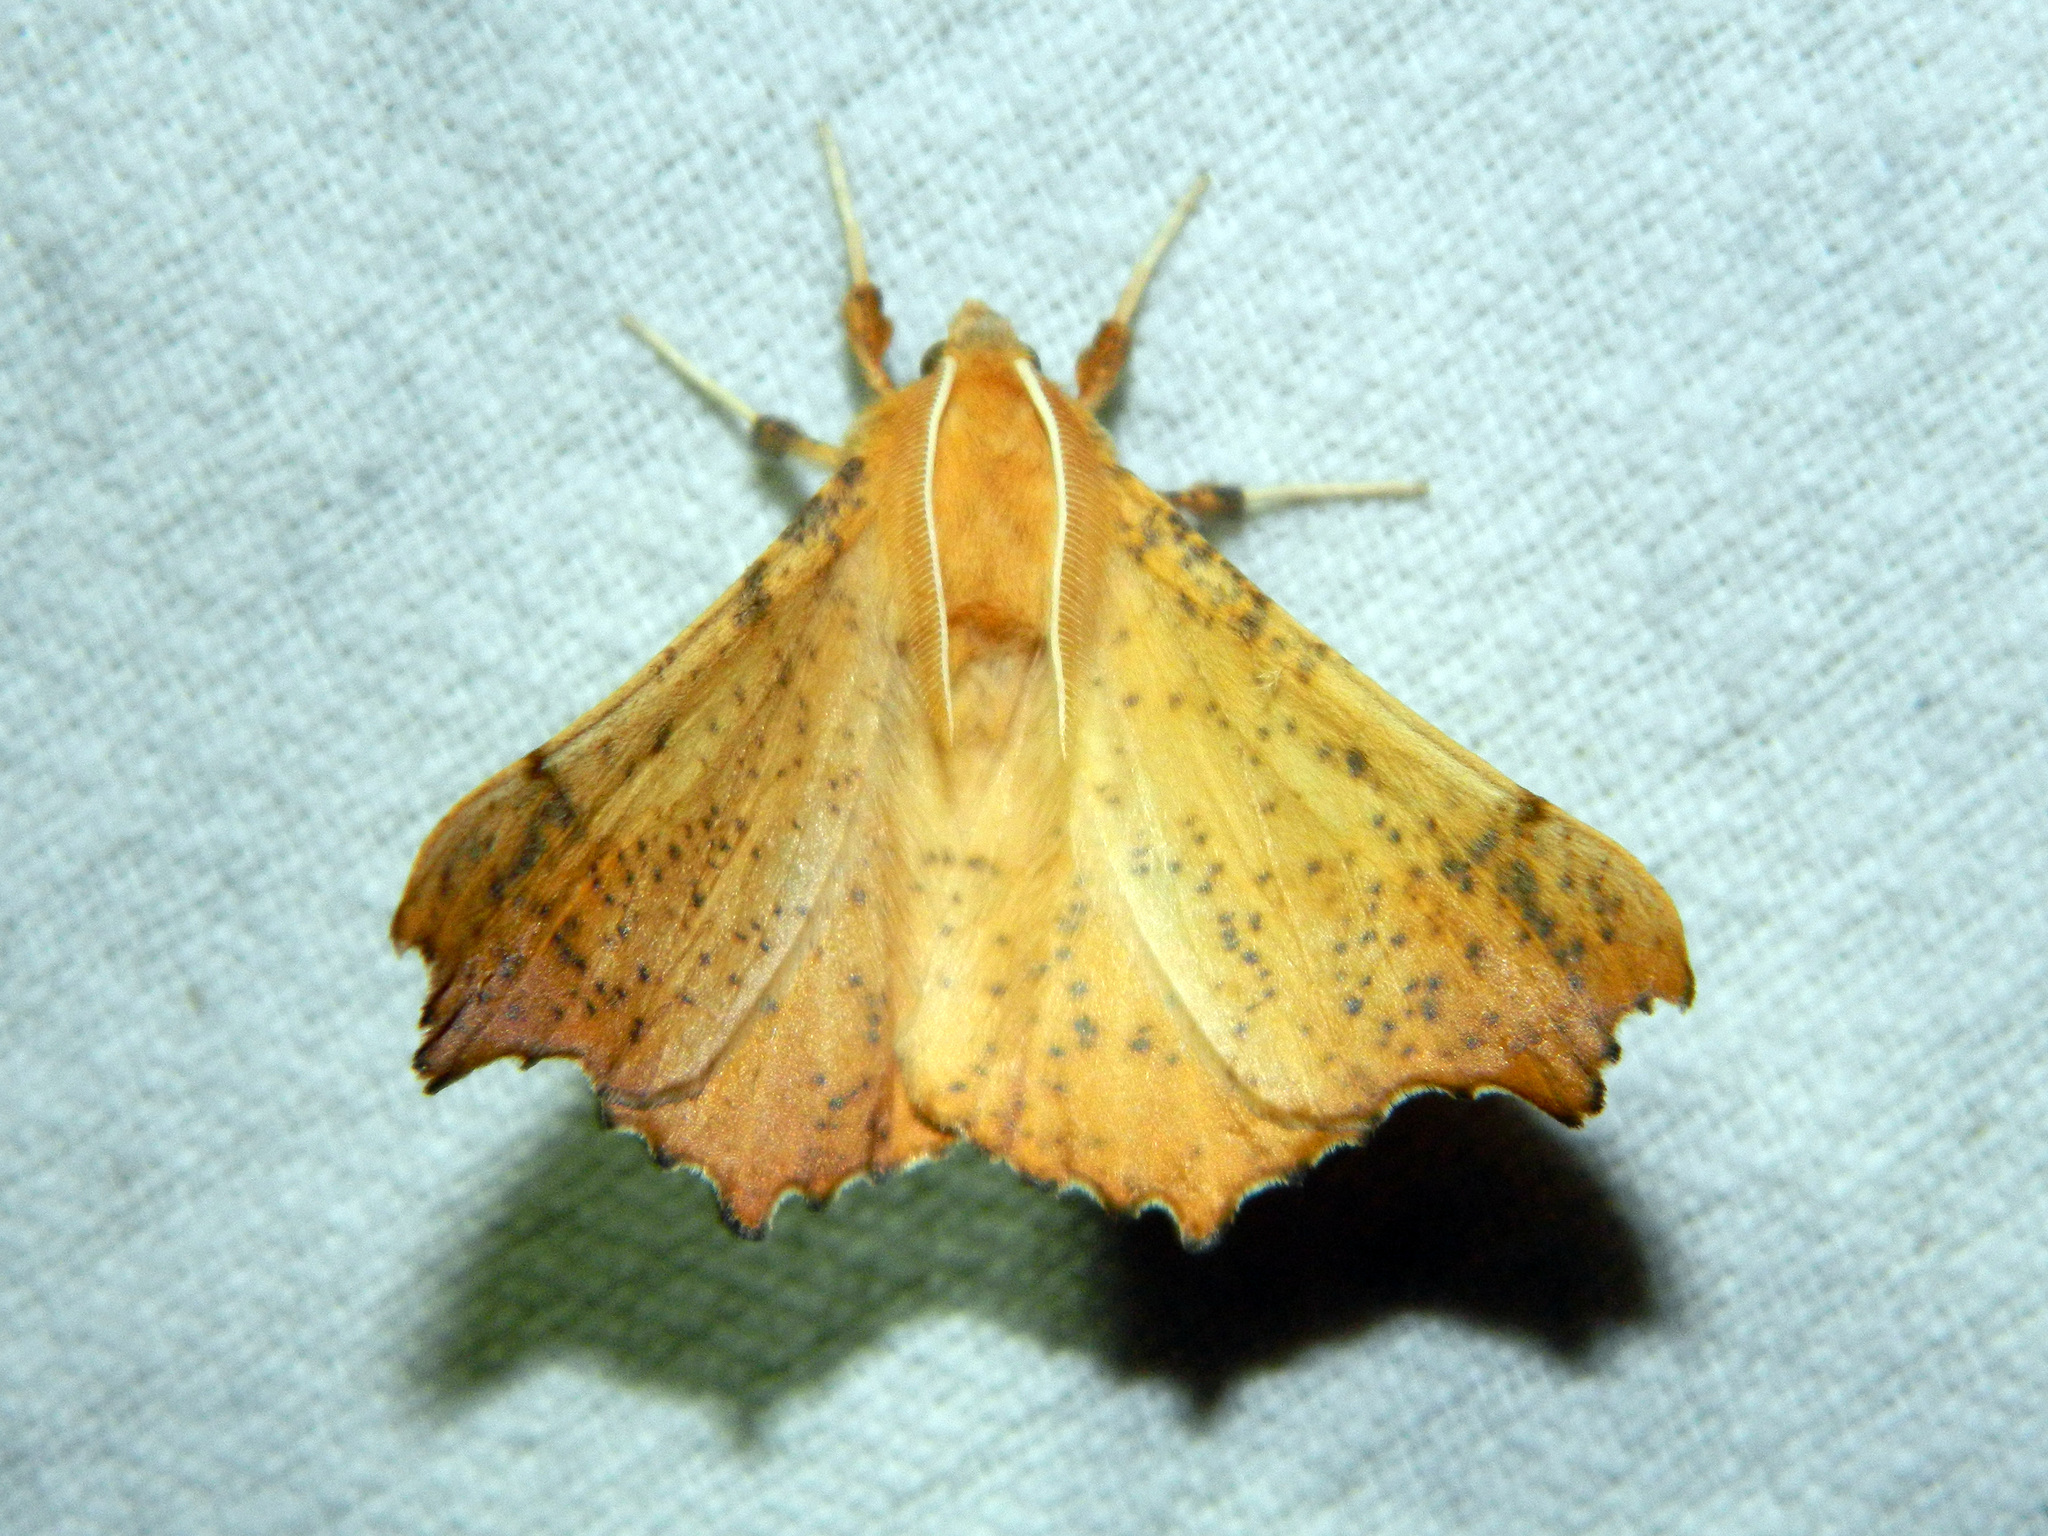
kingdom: Animalia
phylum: Arthropoda
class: Insecta
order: Lepidoptera
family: Geometridae
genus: Ennomos
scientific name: Ennomos magnaria
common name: Maple spanworm
